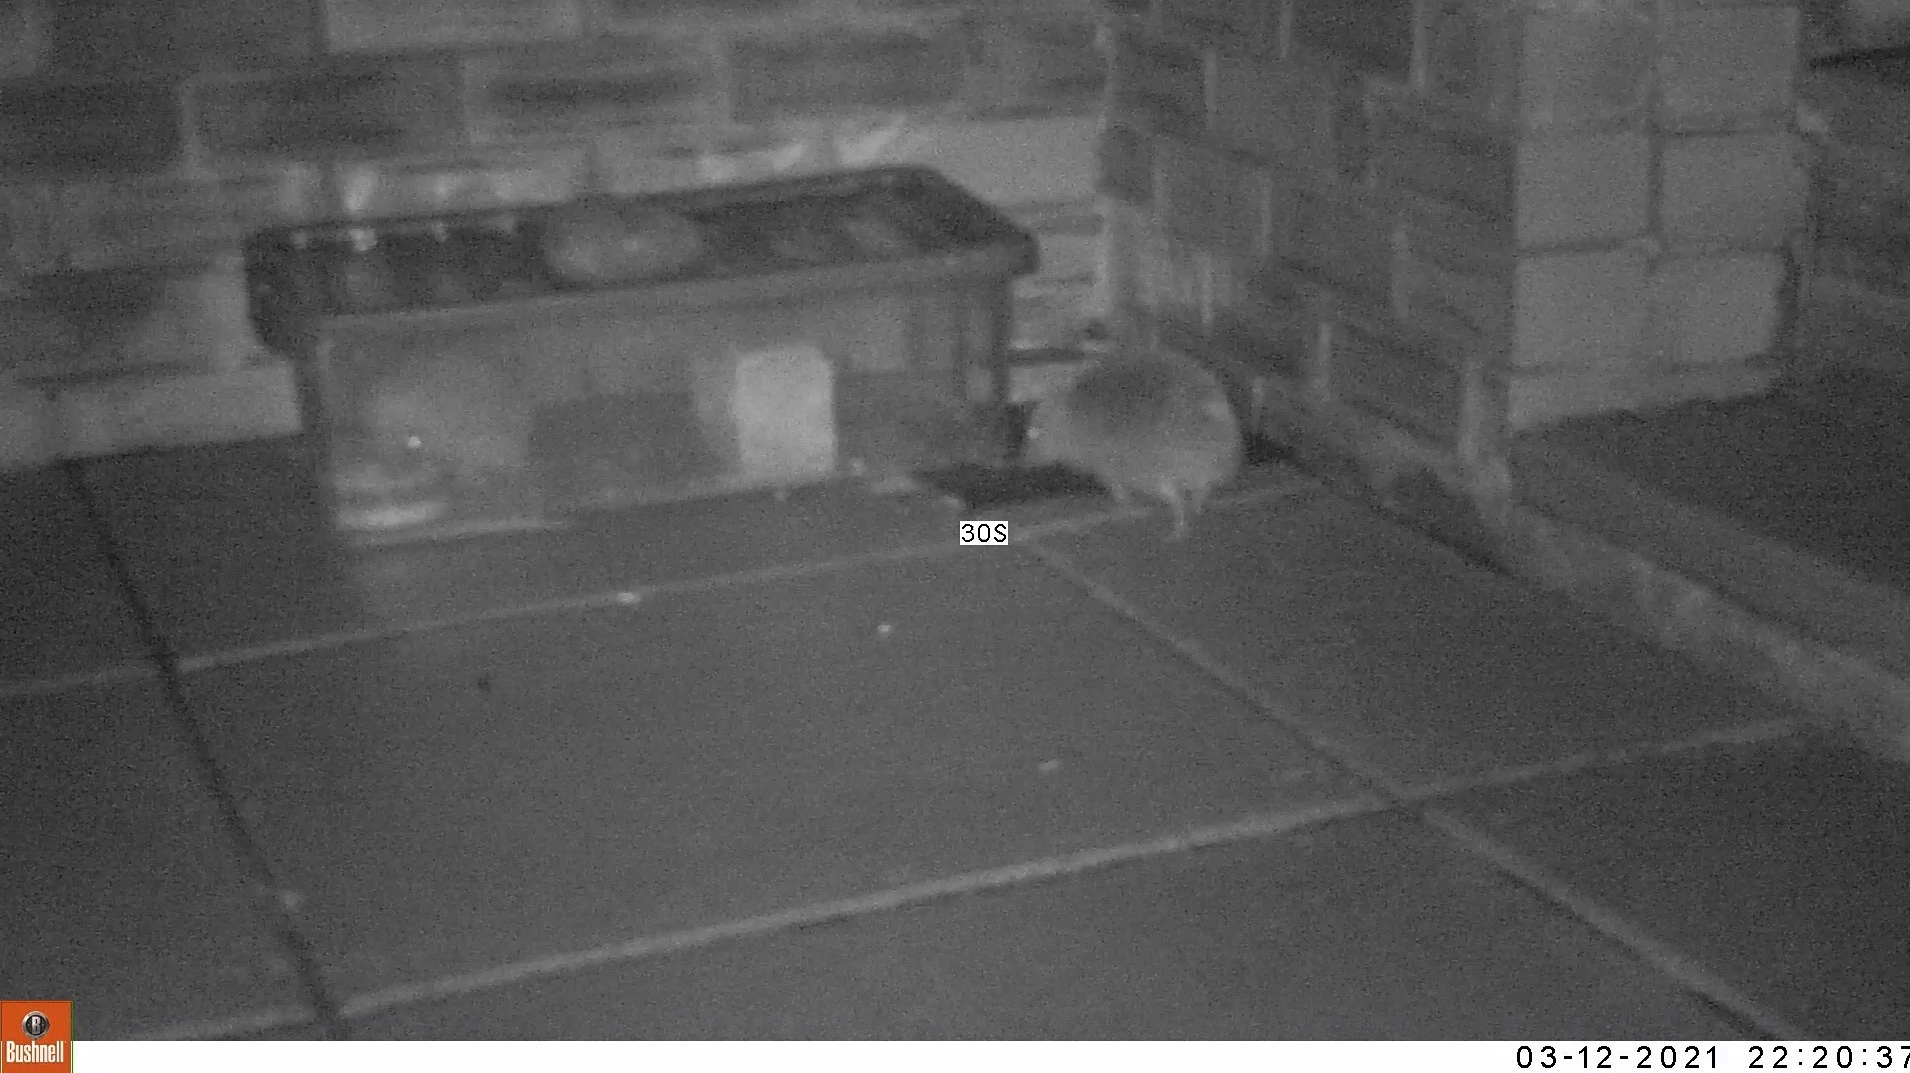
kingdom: Animalia
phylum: Chordata
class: Mammalia
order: Erinaceomorpha
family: Erinaceidae
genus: Erinaceus
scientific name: Erinaceus europaeus
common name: West european hedgehog
